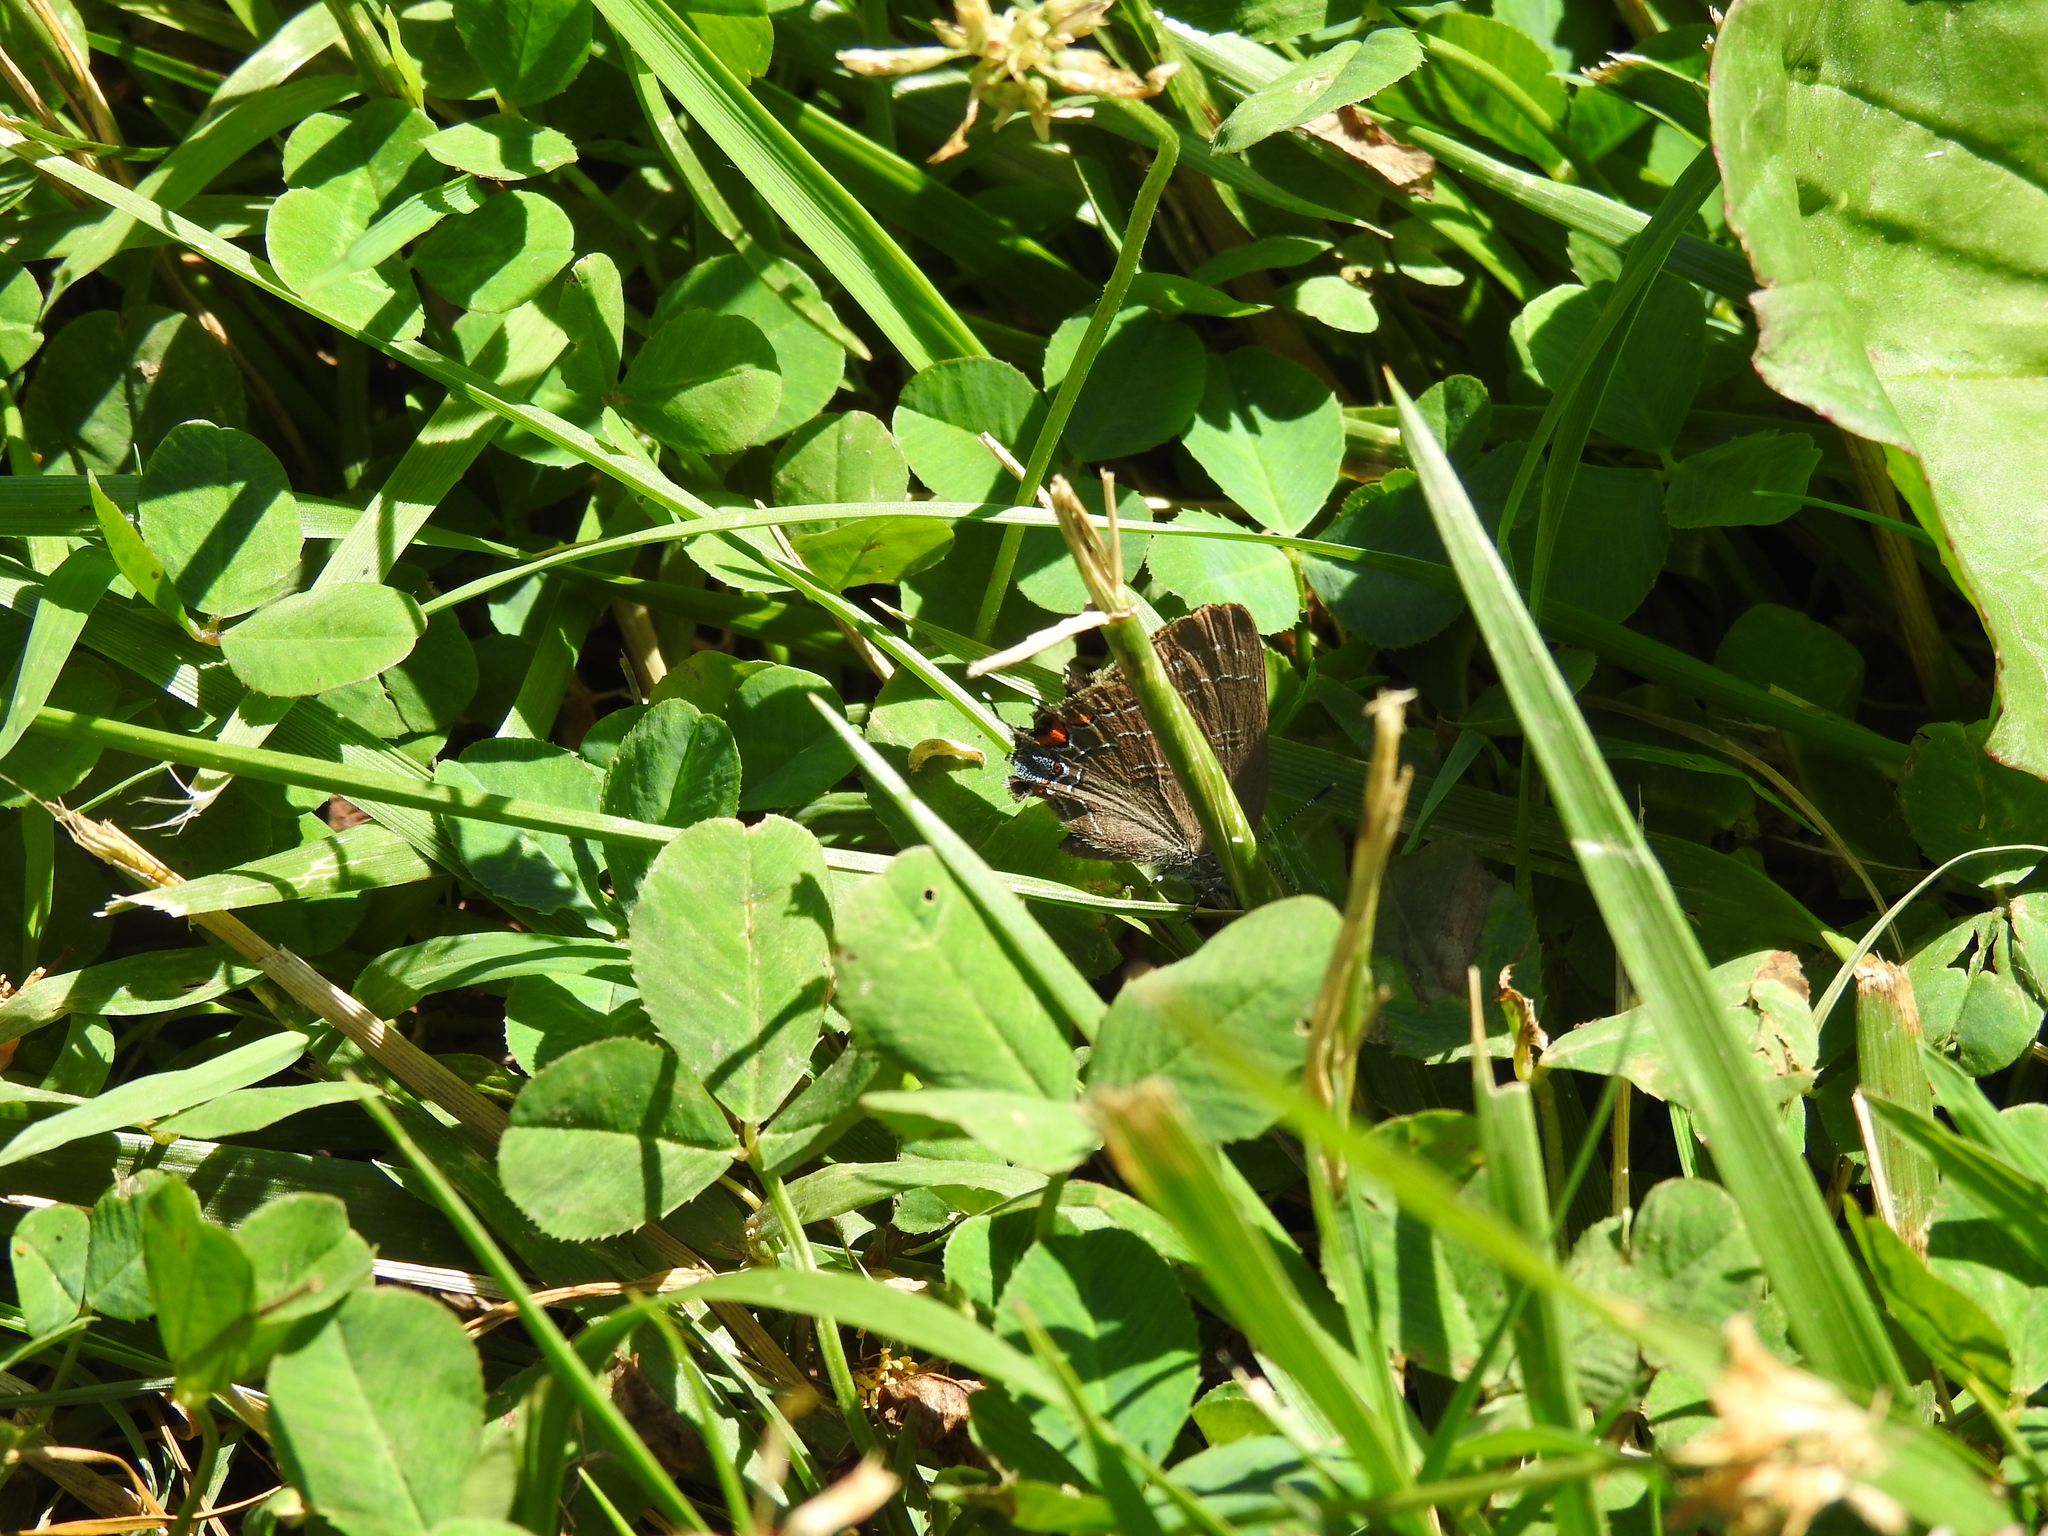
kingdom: Animalia
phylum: Arthropoda
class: Insecta
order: Lepidoptera
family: Lycaenidae
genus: Satyrium
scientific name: Satyrium calanus
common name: Banded hairstreak
